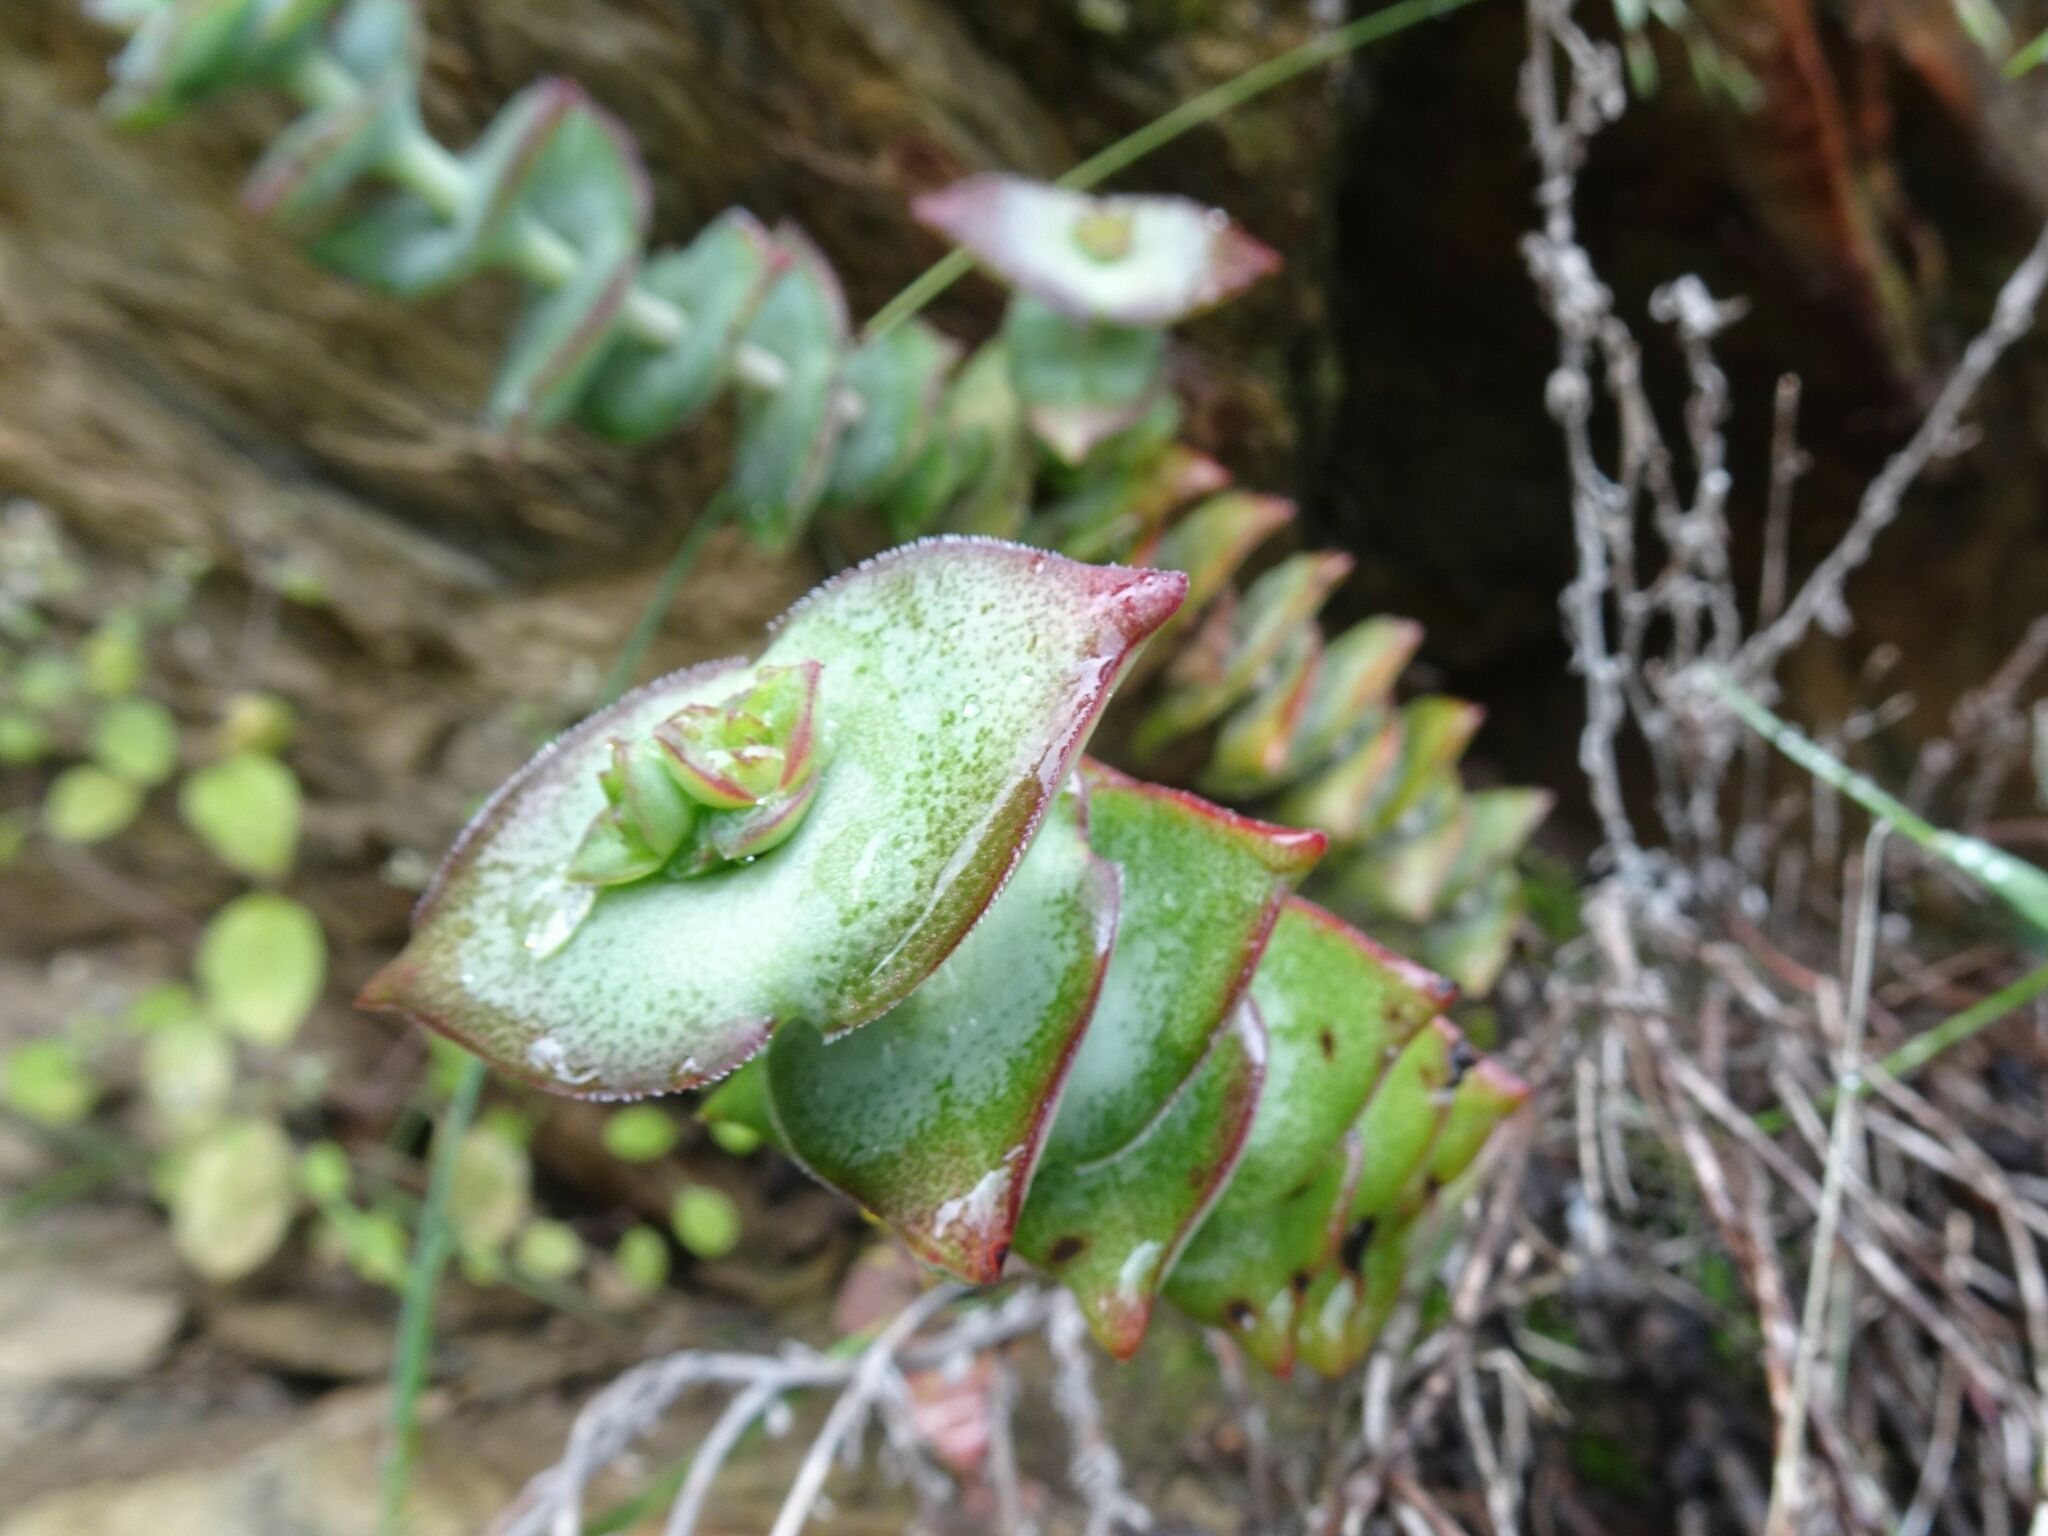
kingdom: Plantae
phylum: Tracheophyta
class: Magnoliopsida
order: Saxifragales
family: Crassulaceae
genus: Crassula
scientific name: Crassula perforata
